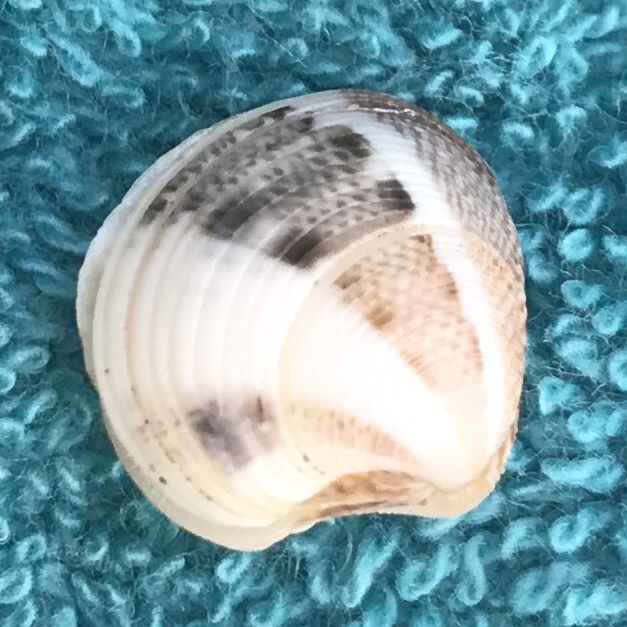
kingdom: Animalia
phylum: Mollusca
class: Bivalvia
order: Venerida
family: Veneridae
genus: Chamelea
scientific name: Chamelea gallina
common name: Chicken venus
